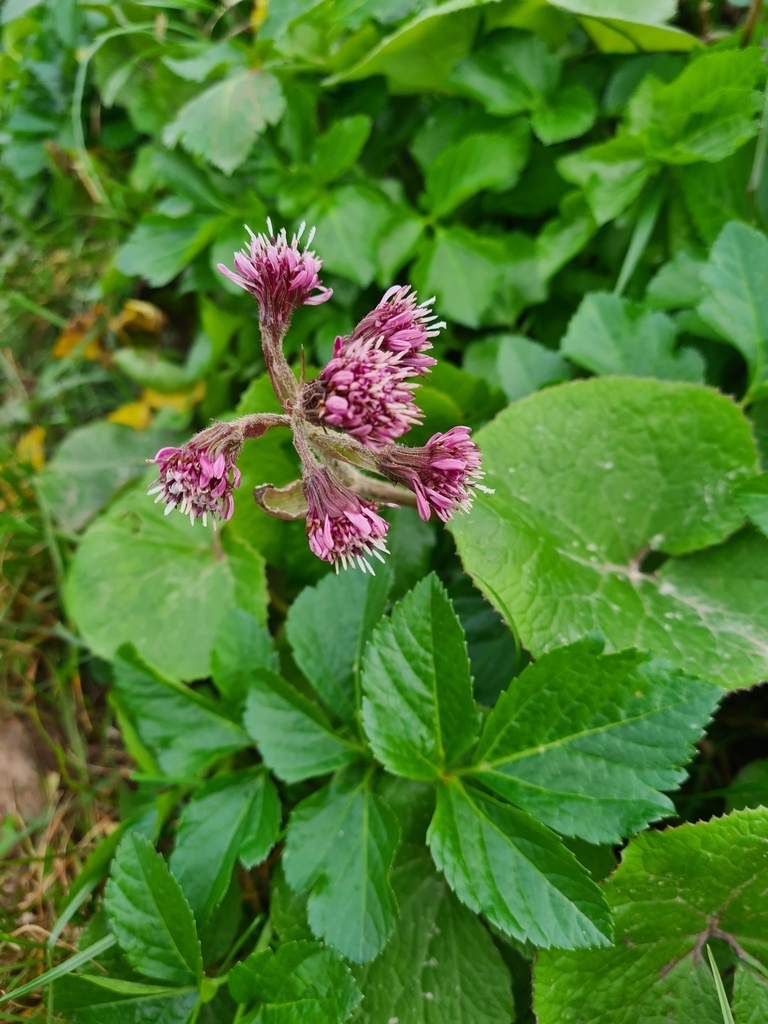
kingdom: Plantae
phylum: Tracheophyta
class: Magnoliopsida
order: Asterales
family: Asteraceae
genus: Petasites
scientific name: Petasites pyrenaicus
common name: Winter heliotrope
